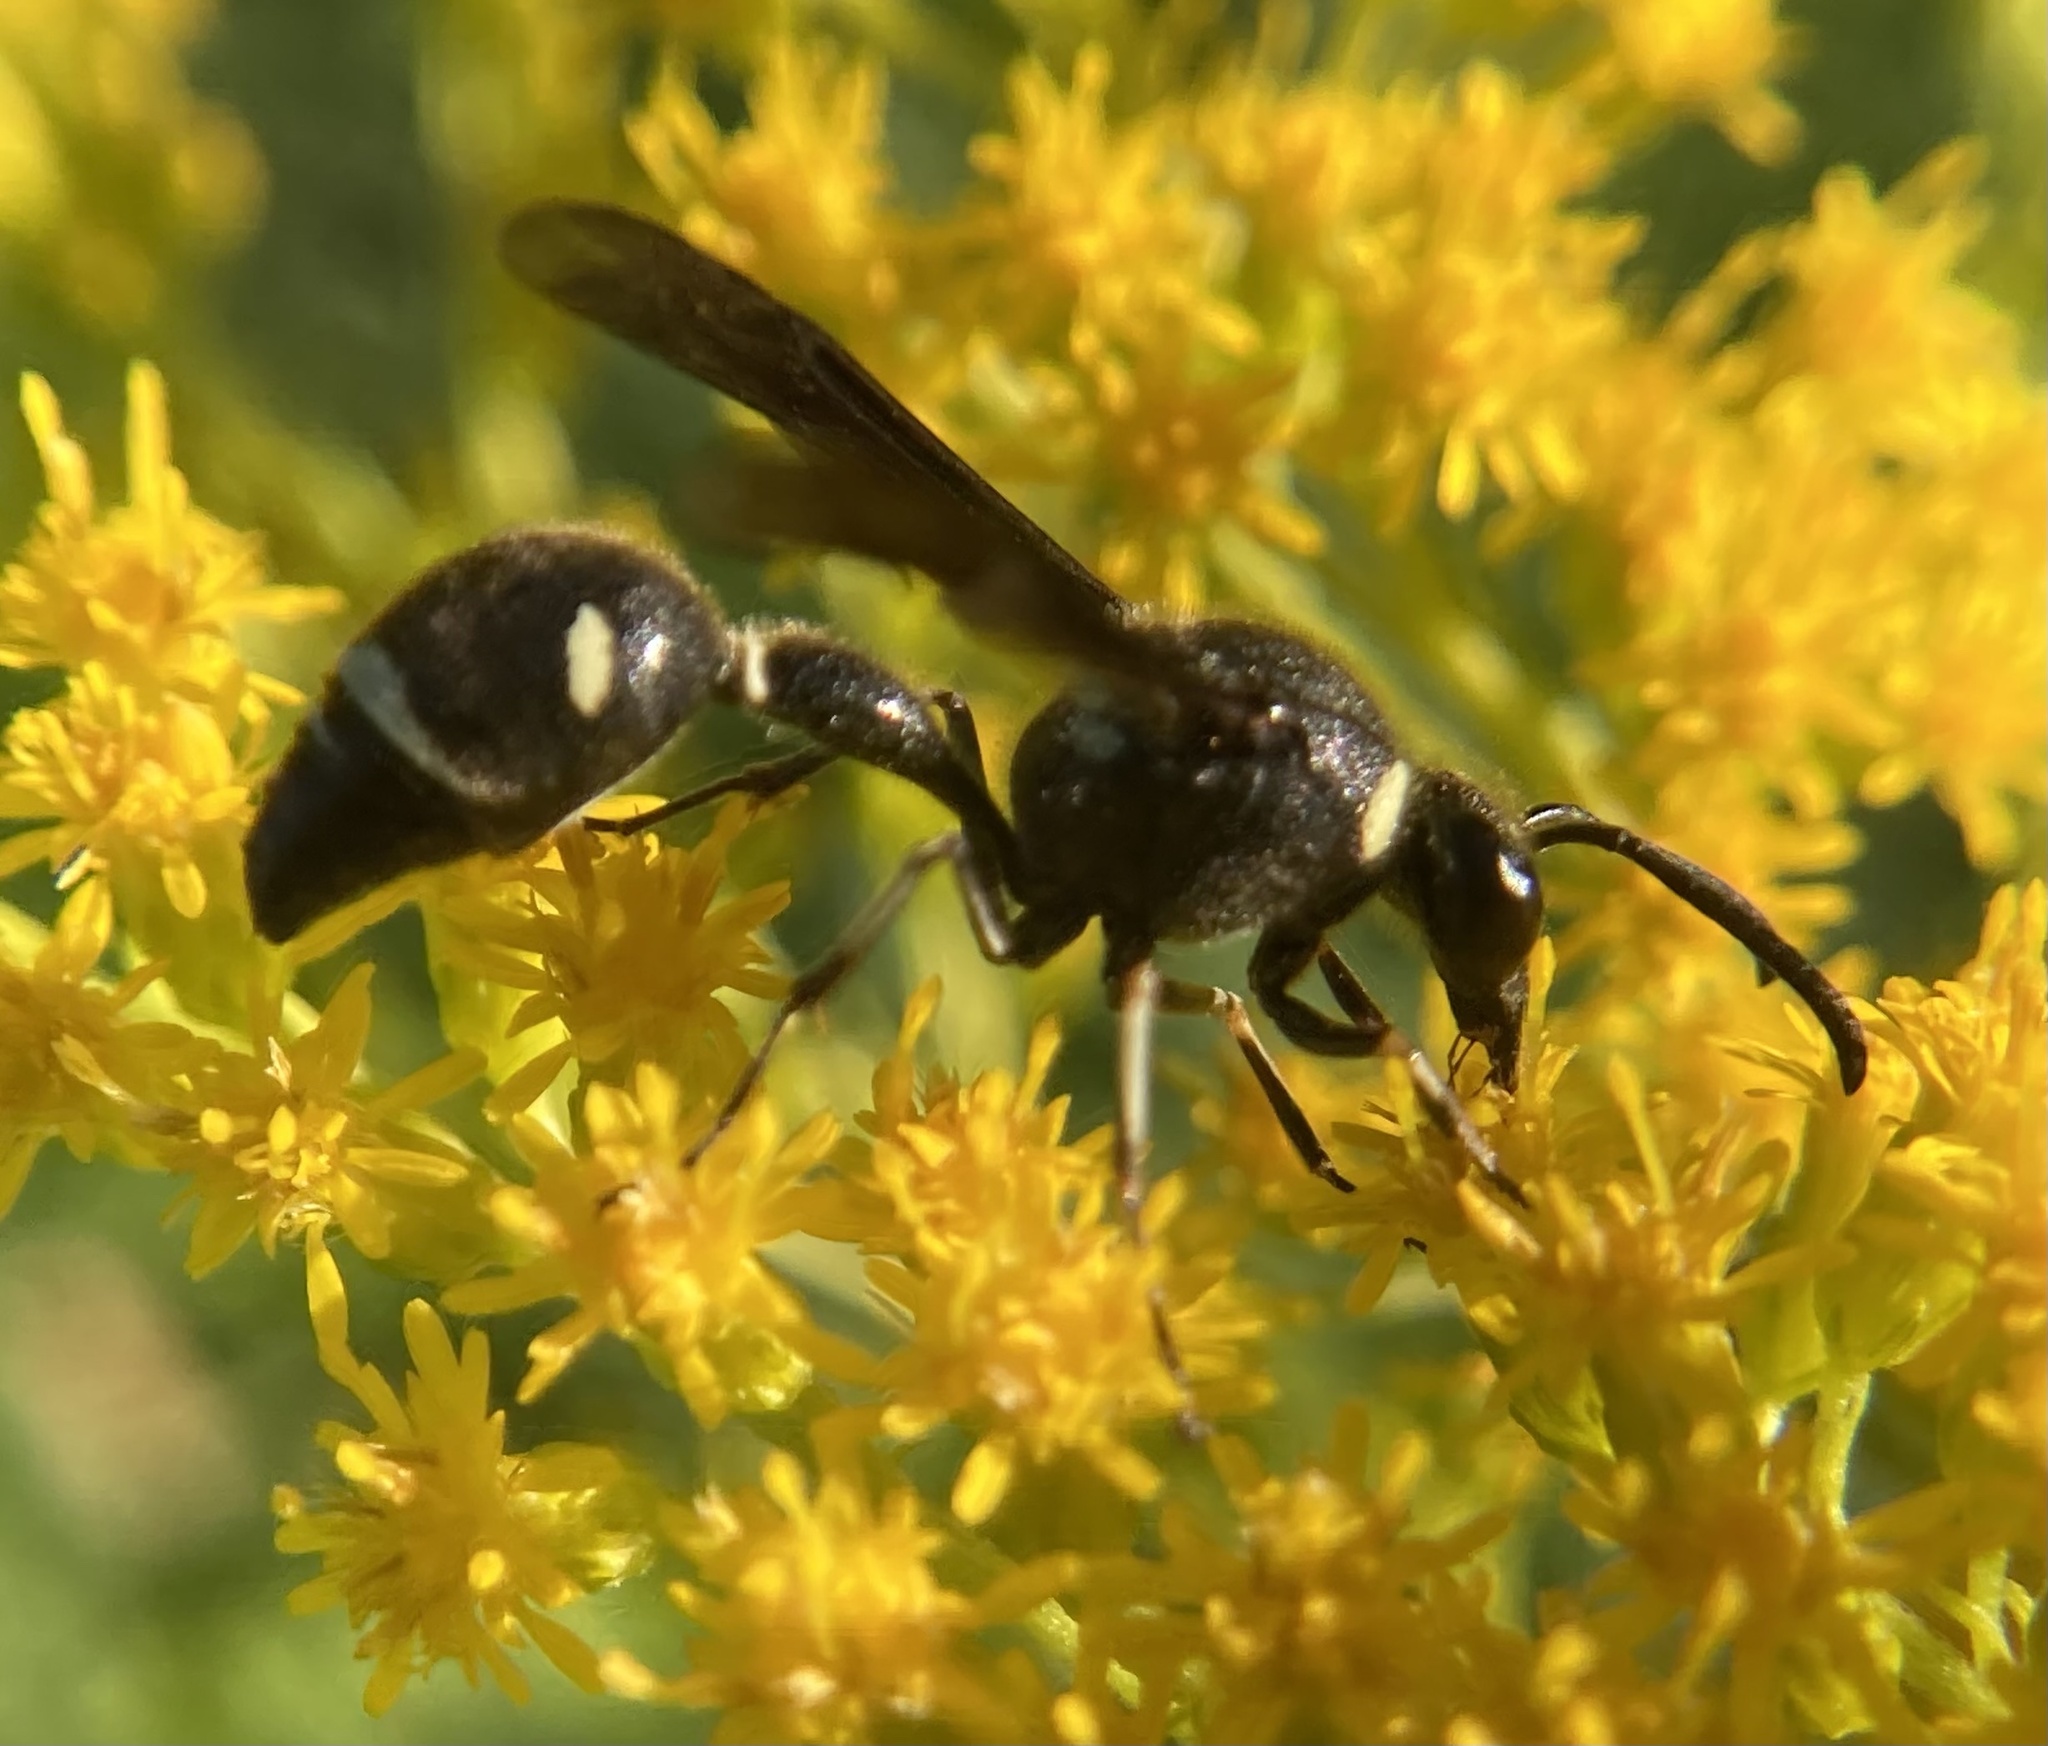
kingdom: Animalia
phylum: Arthropoda
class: Insecta
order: Hymenoptera
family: Vespidae
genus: Eumenes
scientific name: Eumenes fraternus
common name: Fraternal potter wasp
